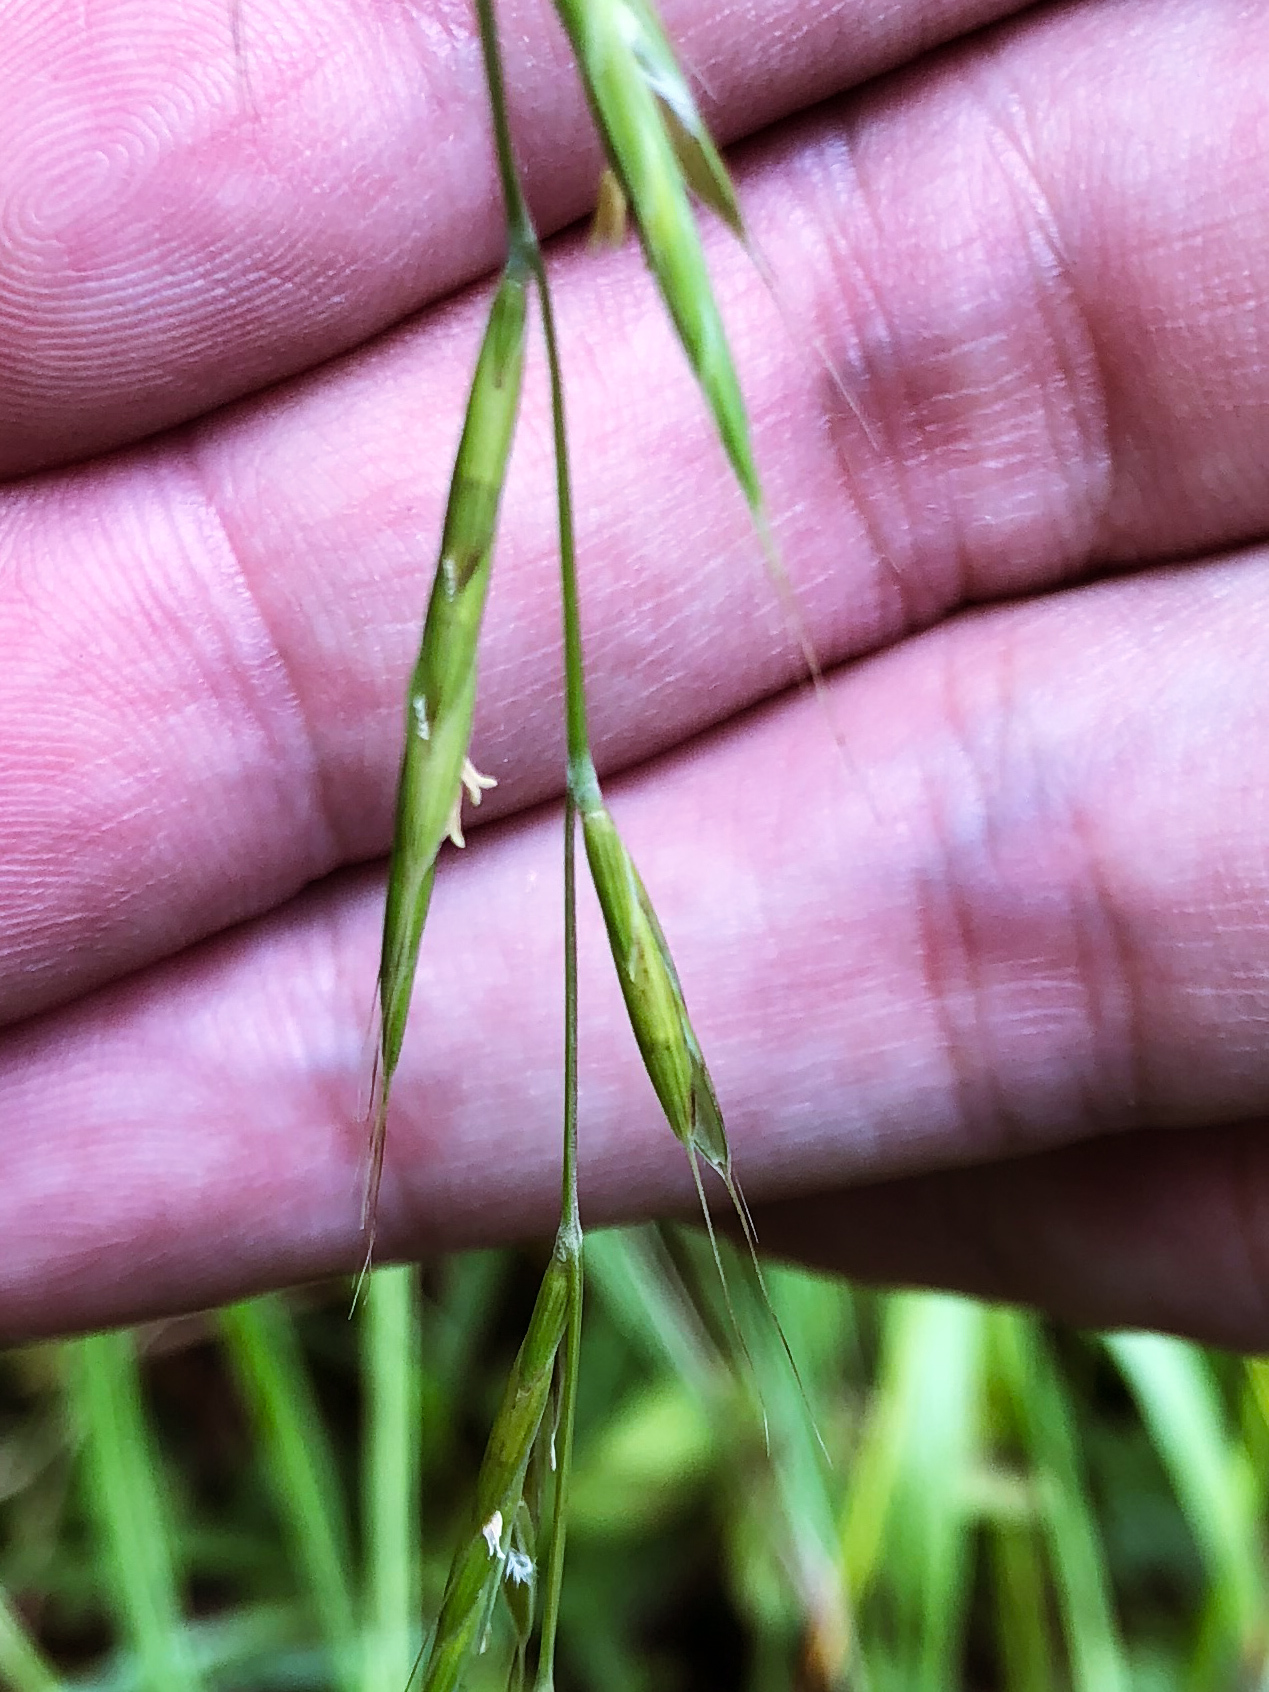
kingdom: Plantae
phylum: Tracheophyta
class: Liliopsida
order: Poales
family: Poaceae
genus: Brachypodium
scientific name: Brachypodium sylvaticum
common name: False-brome
